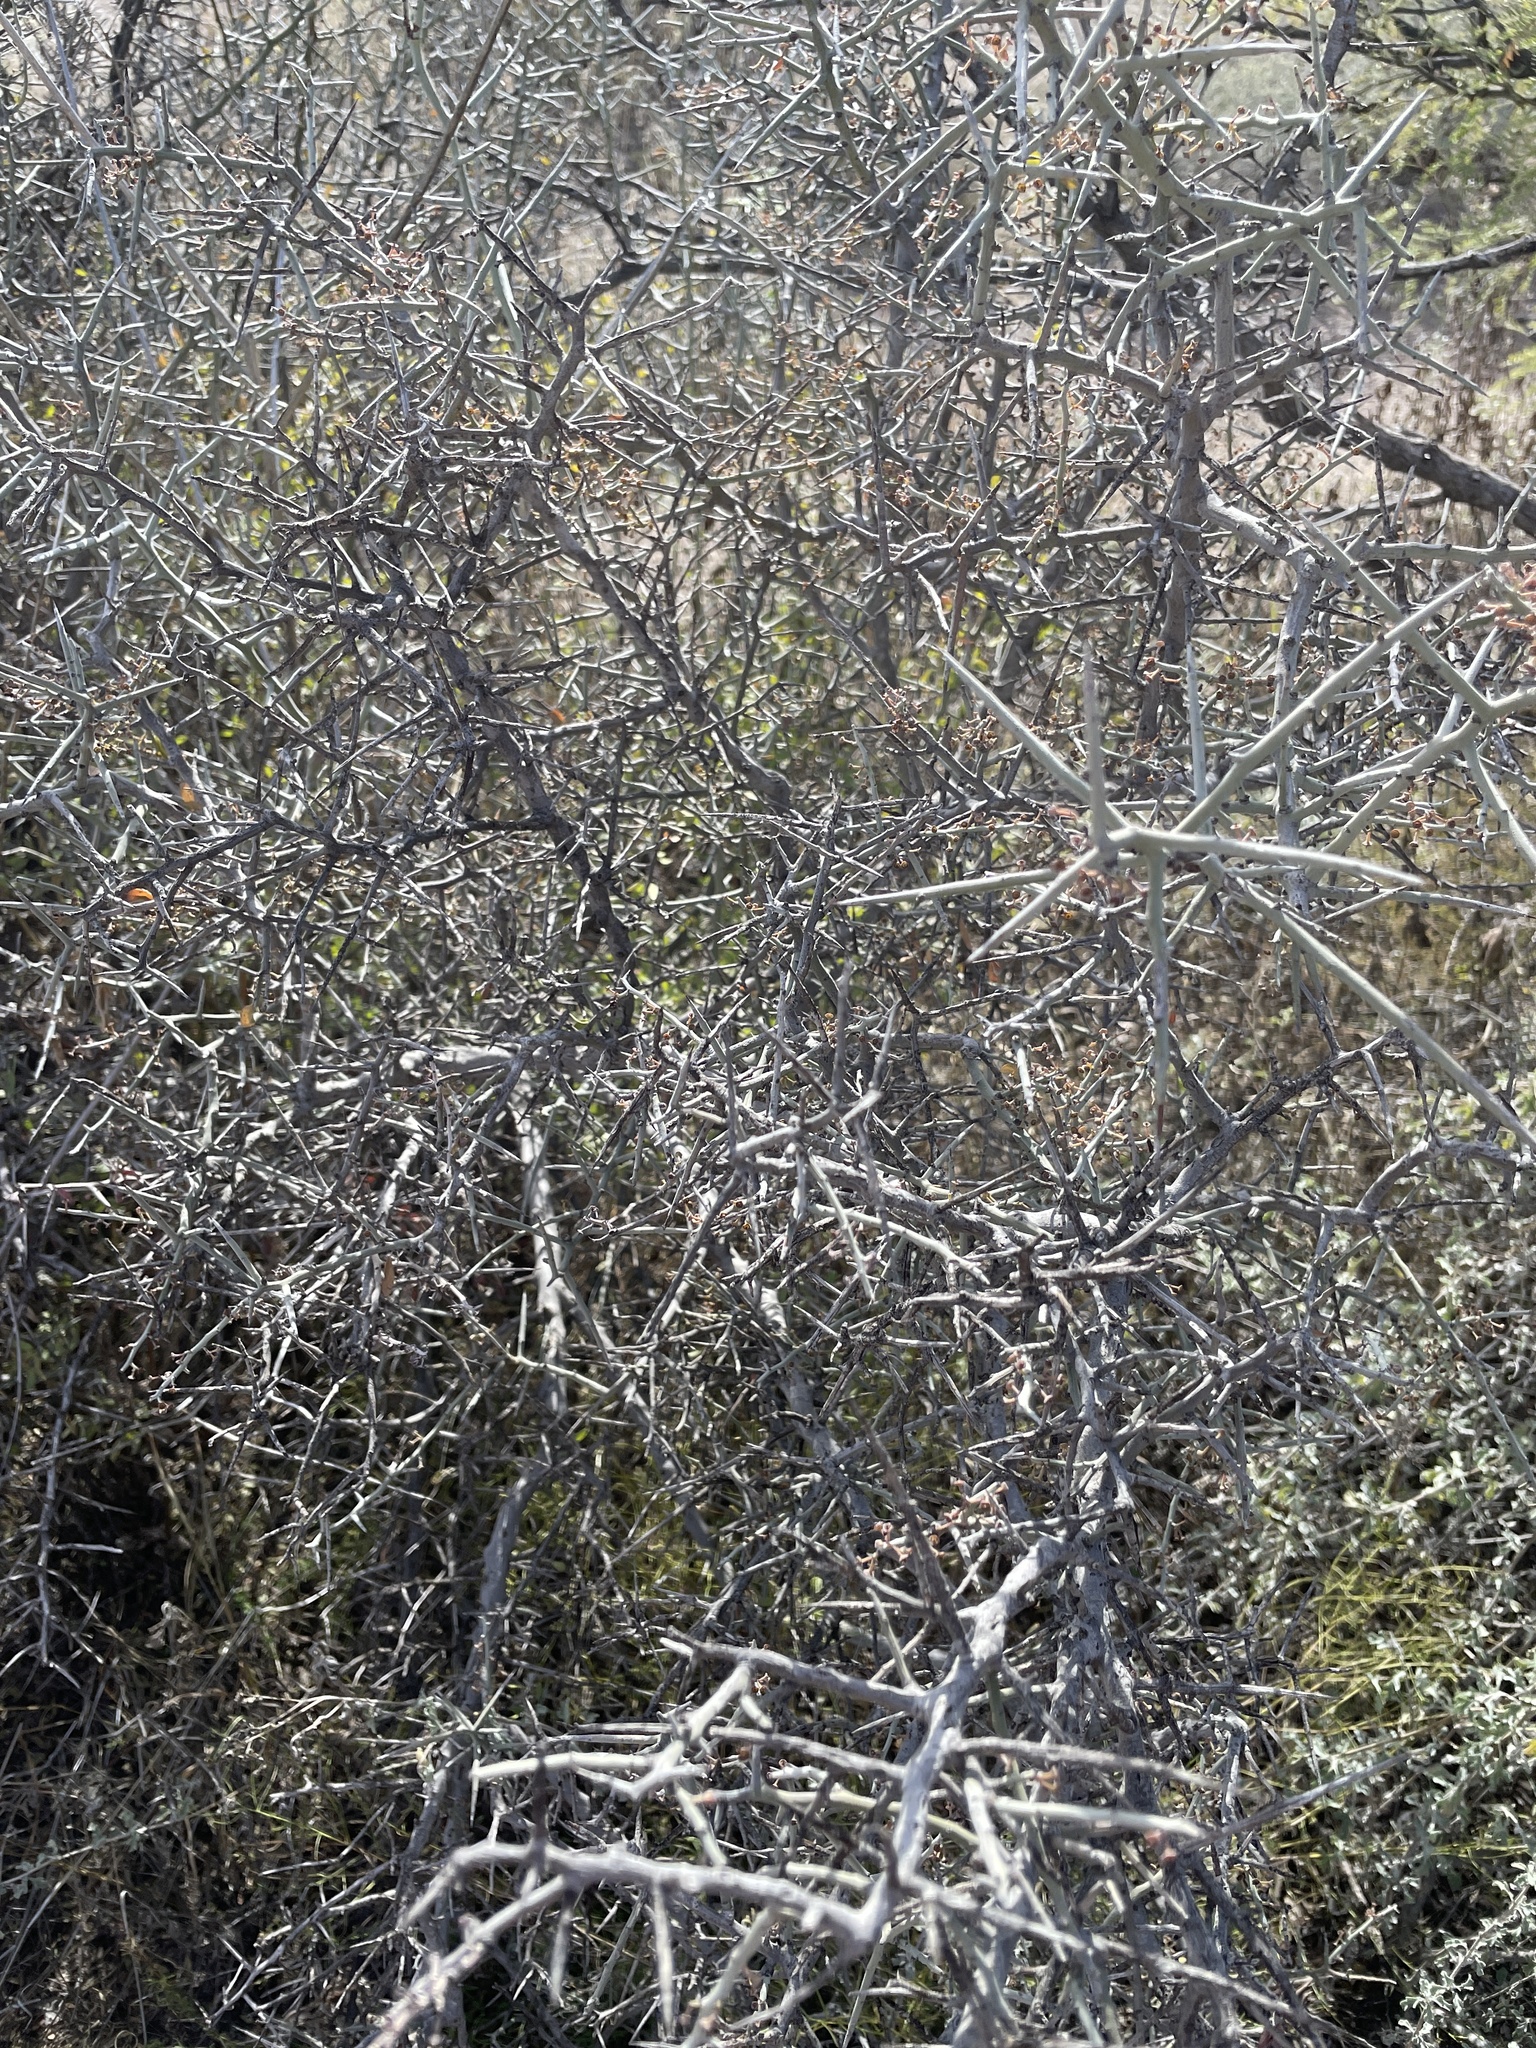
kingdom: Plantae
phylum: Tracheophyta
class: Magnoliopsida
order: Rosales
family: Rhamnaceae
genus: Sarcomphalus
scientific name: Sarcomphalus obtusifolius
